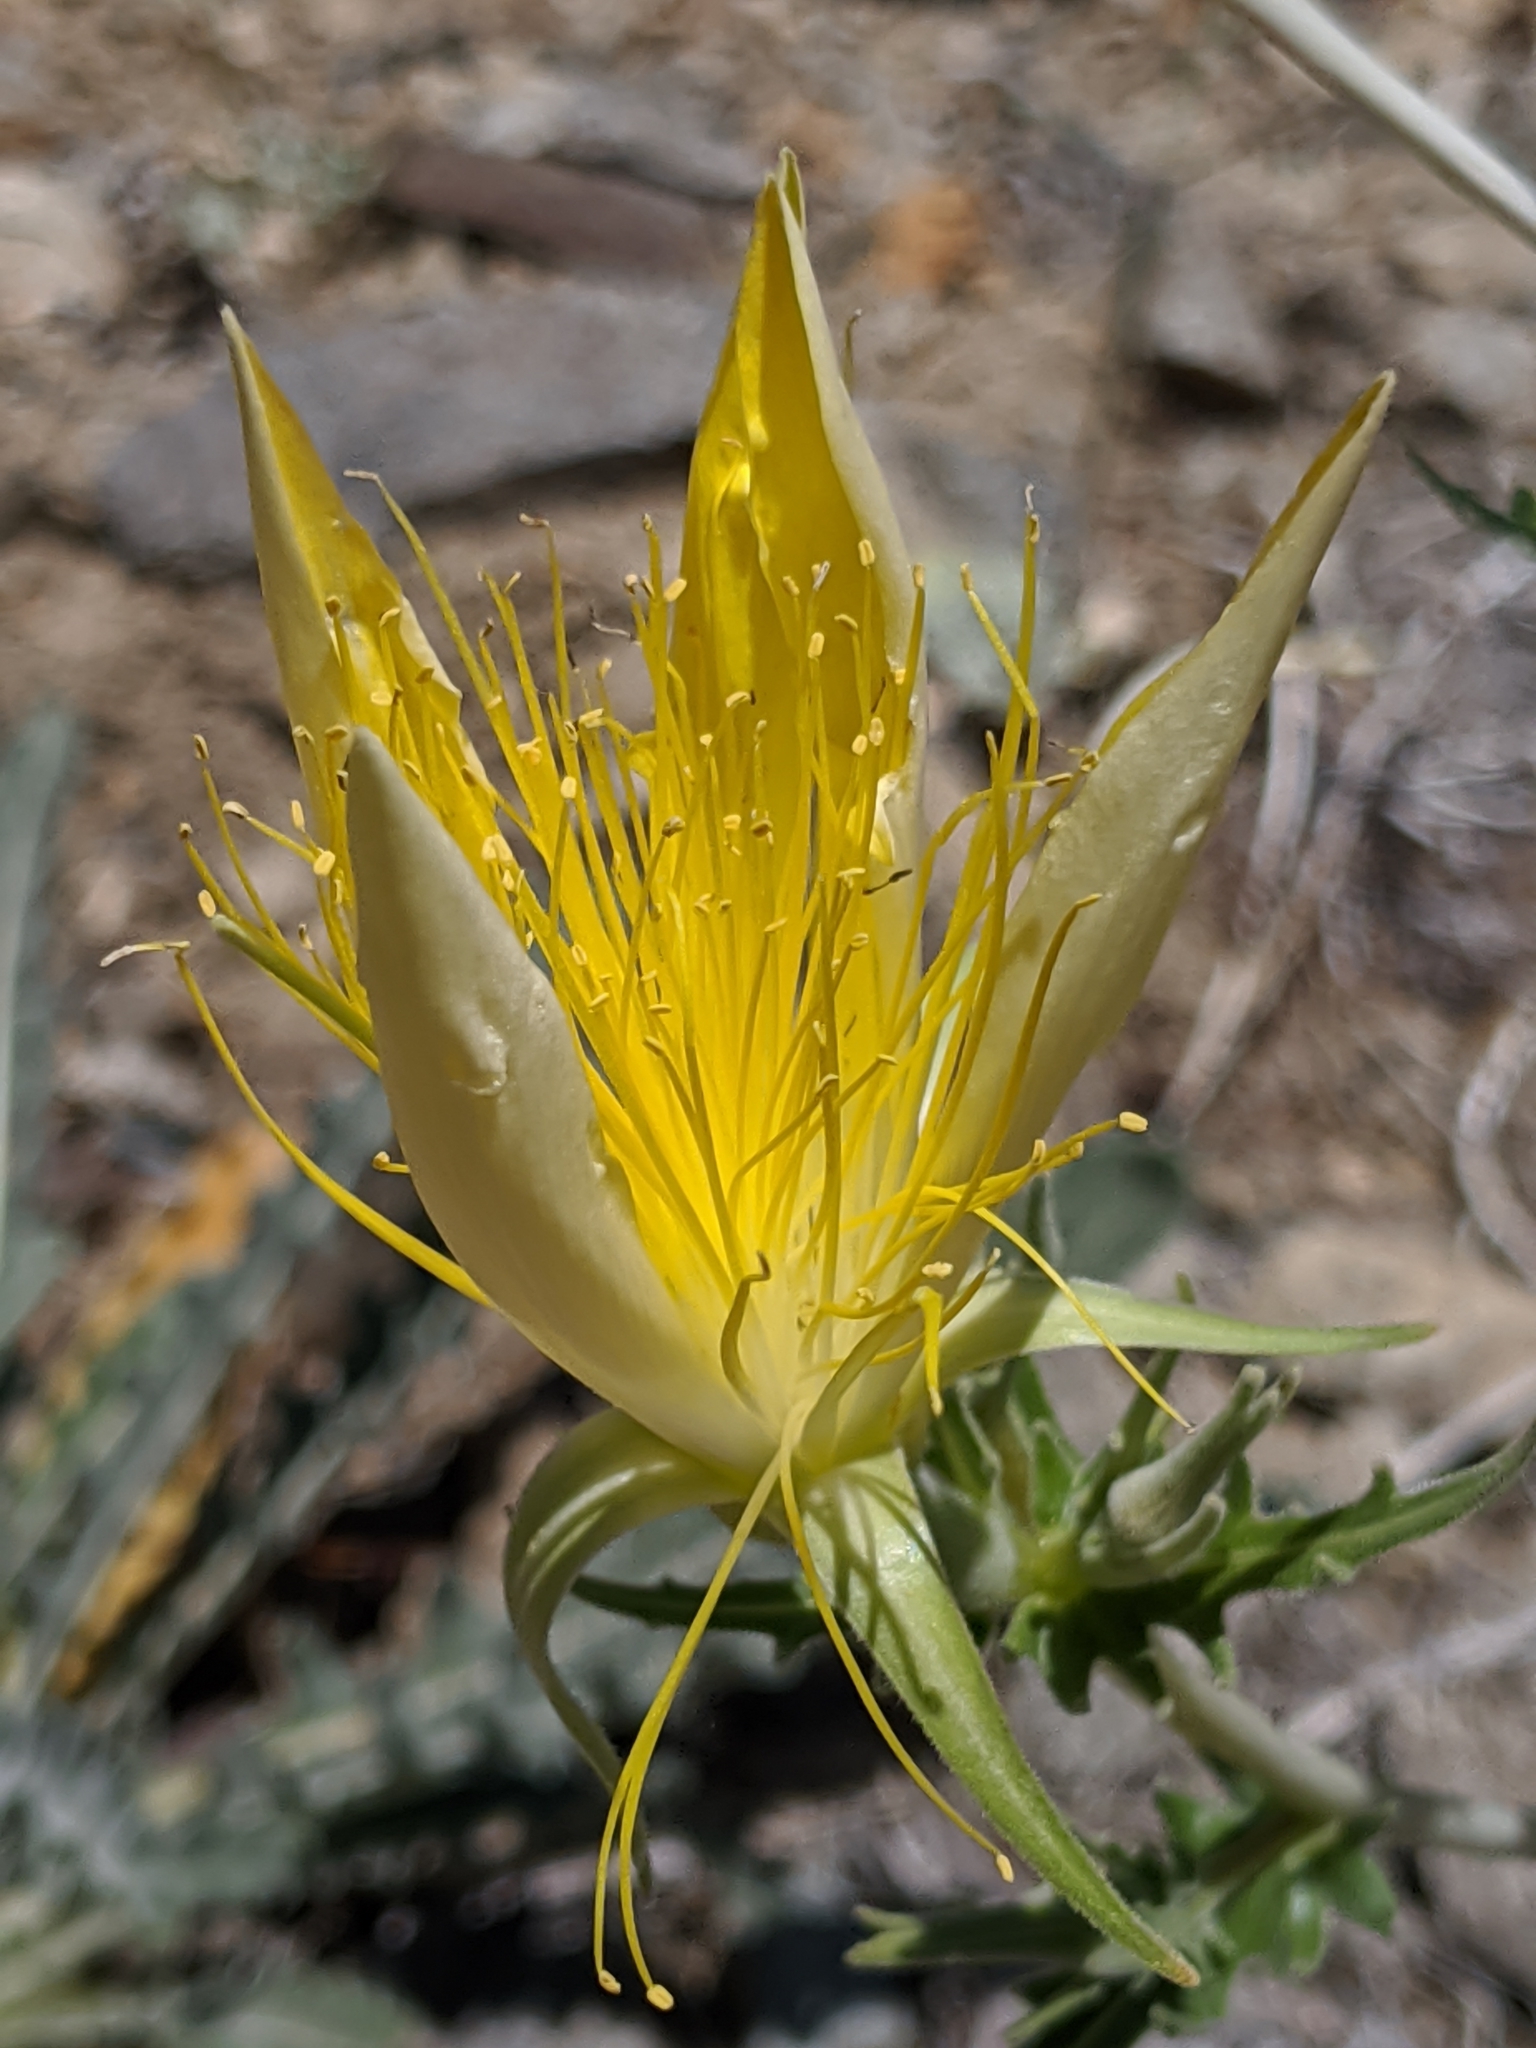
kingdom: Plantae
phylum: Tracheophyta
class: Magnoliopsida
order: Cornales
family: Loasaceae
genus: Mentzelia
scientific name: Mentzelia laevicaulis
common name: Smooth-stem blazingstar
